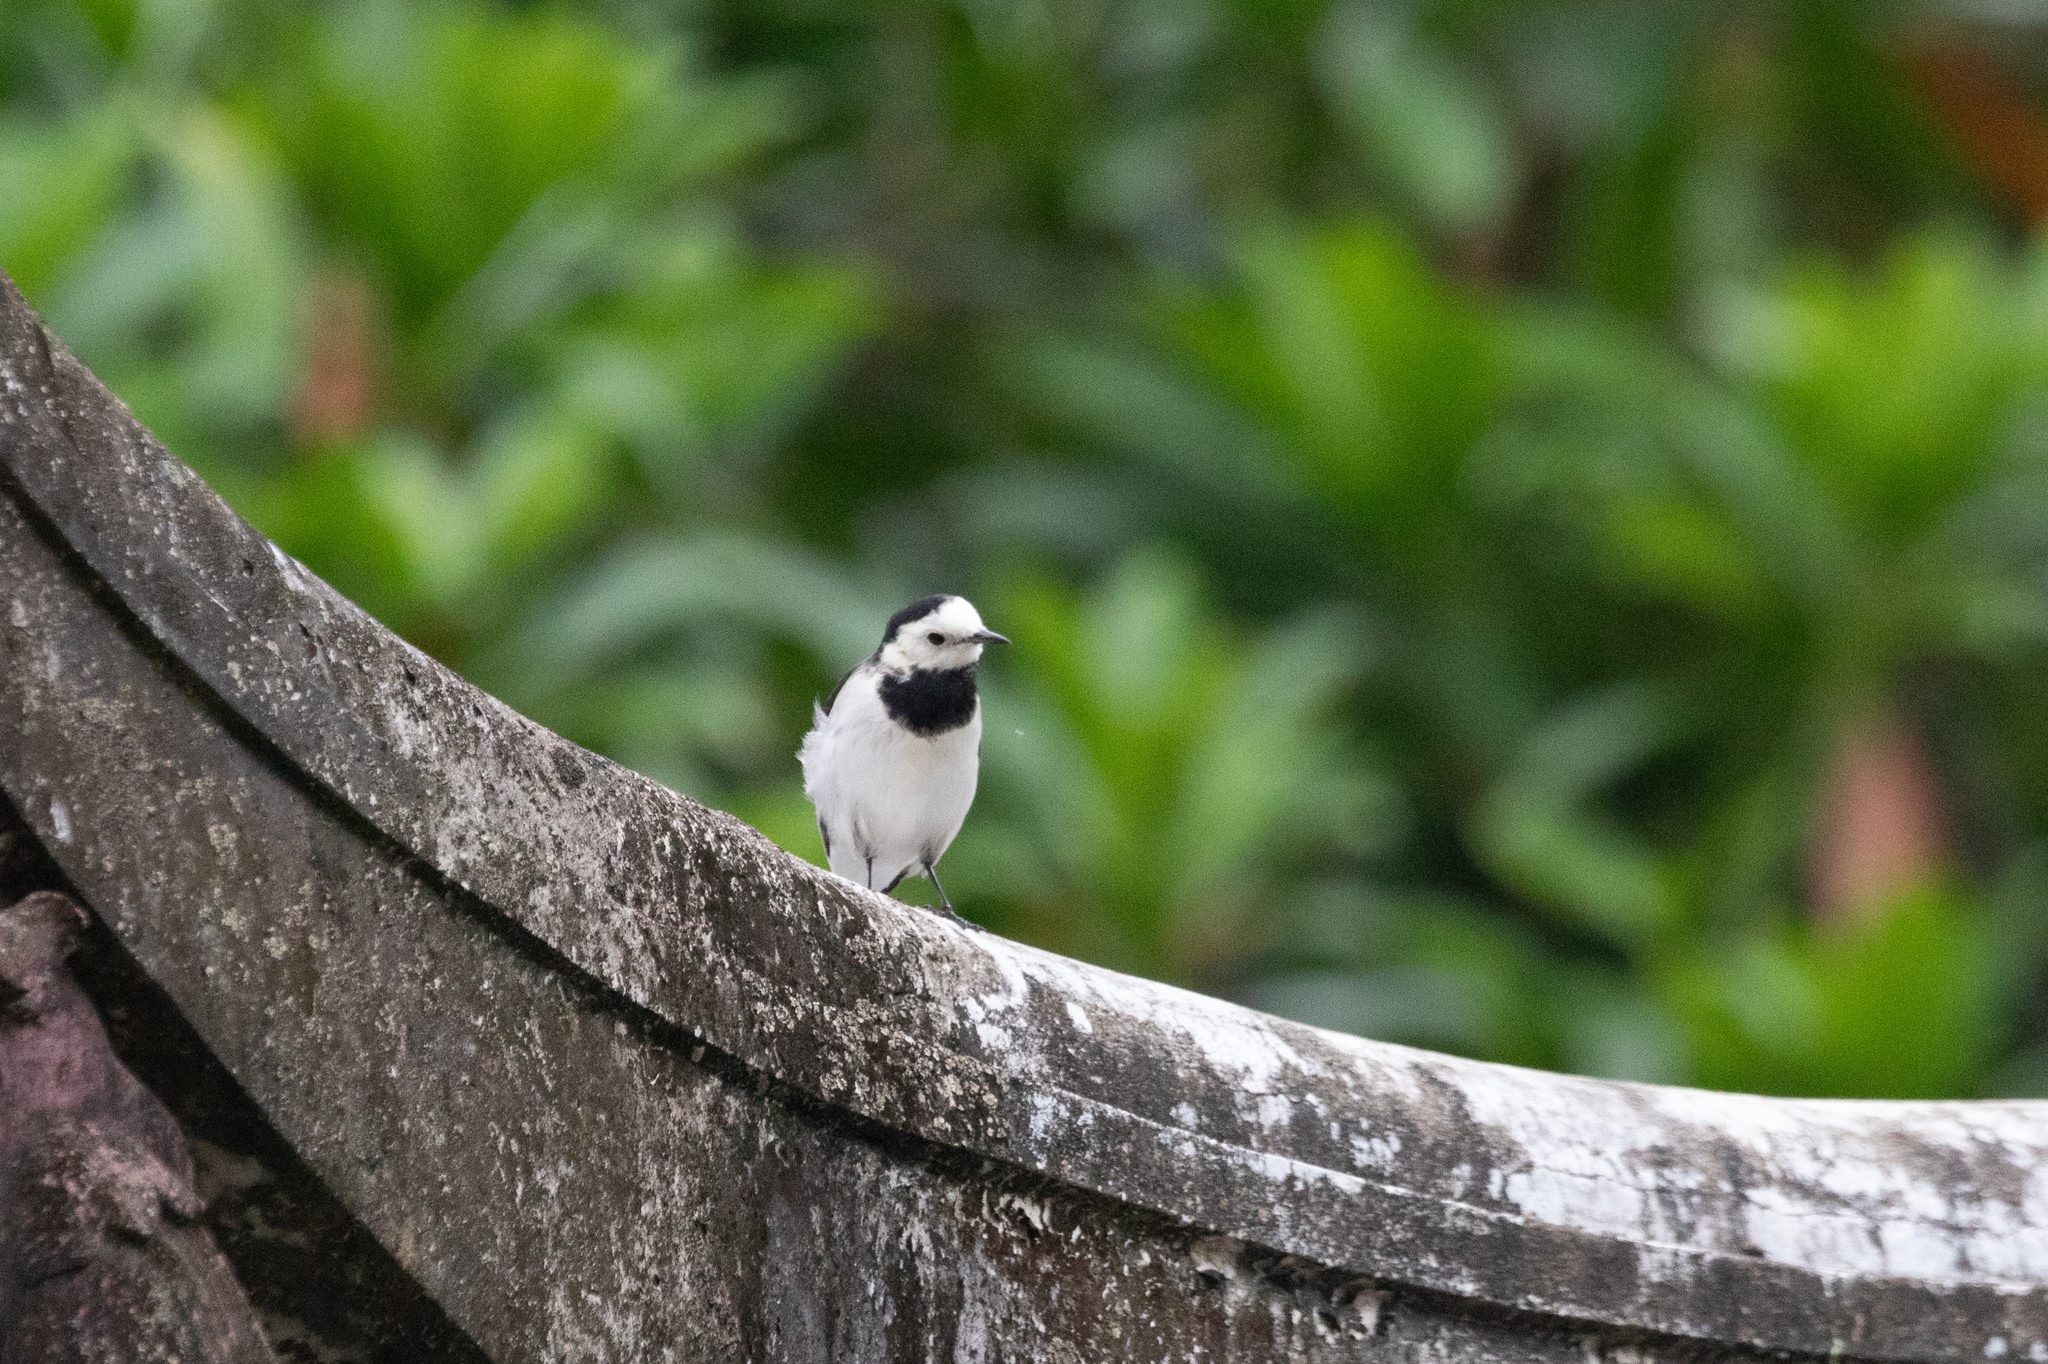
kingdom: Animalia
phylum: Chordata
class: Aves
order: Passeriformes
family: Motacillidae
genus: Motacilla
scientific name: Motacilla alba
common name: White wagtail
